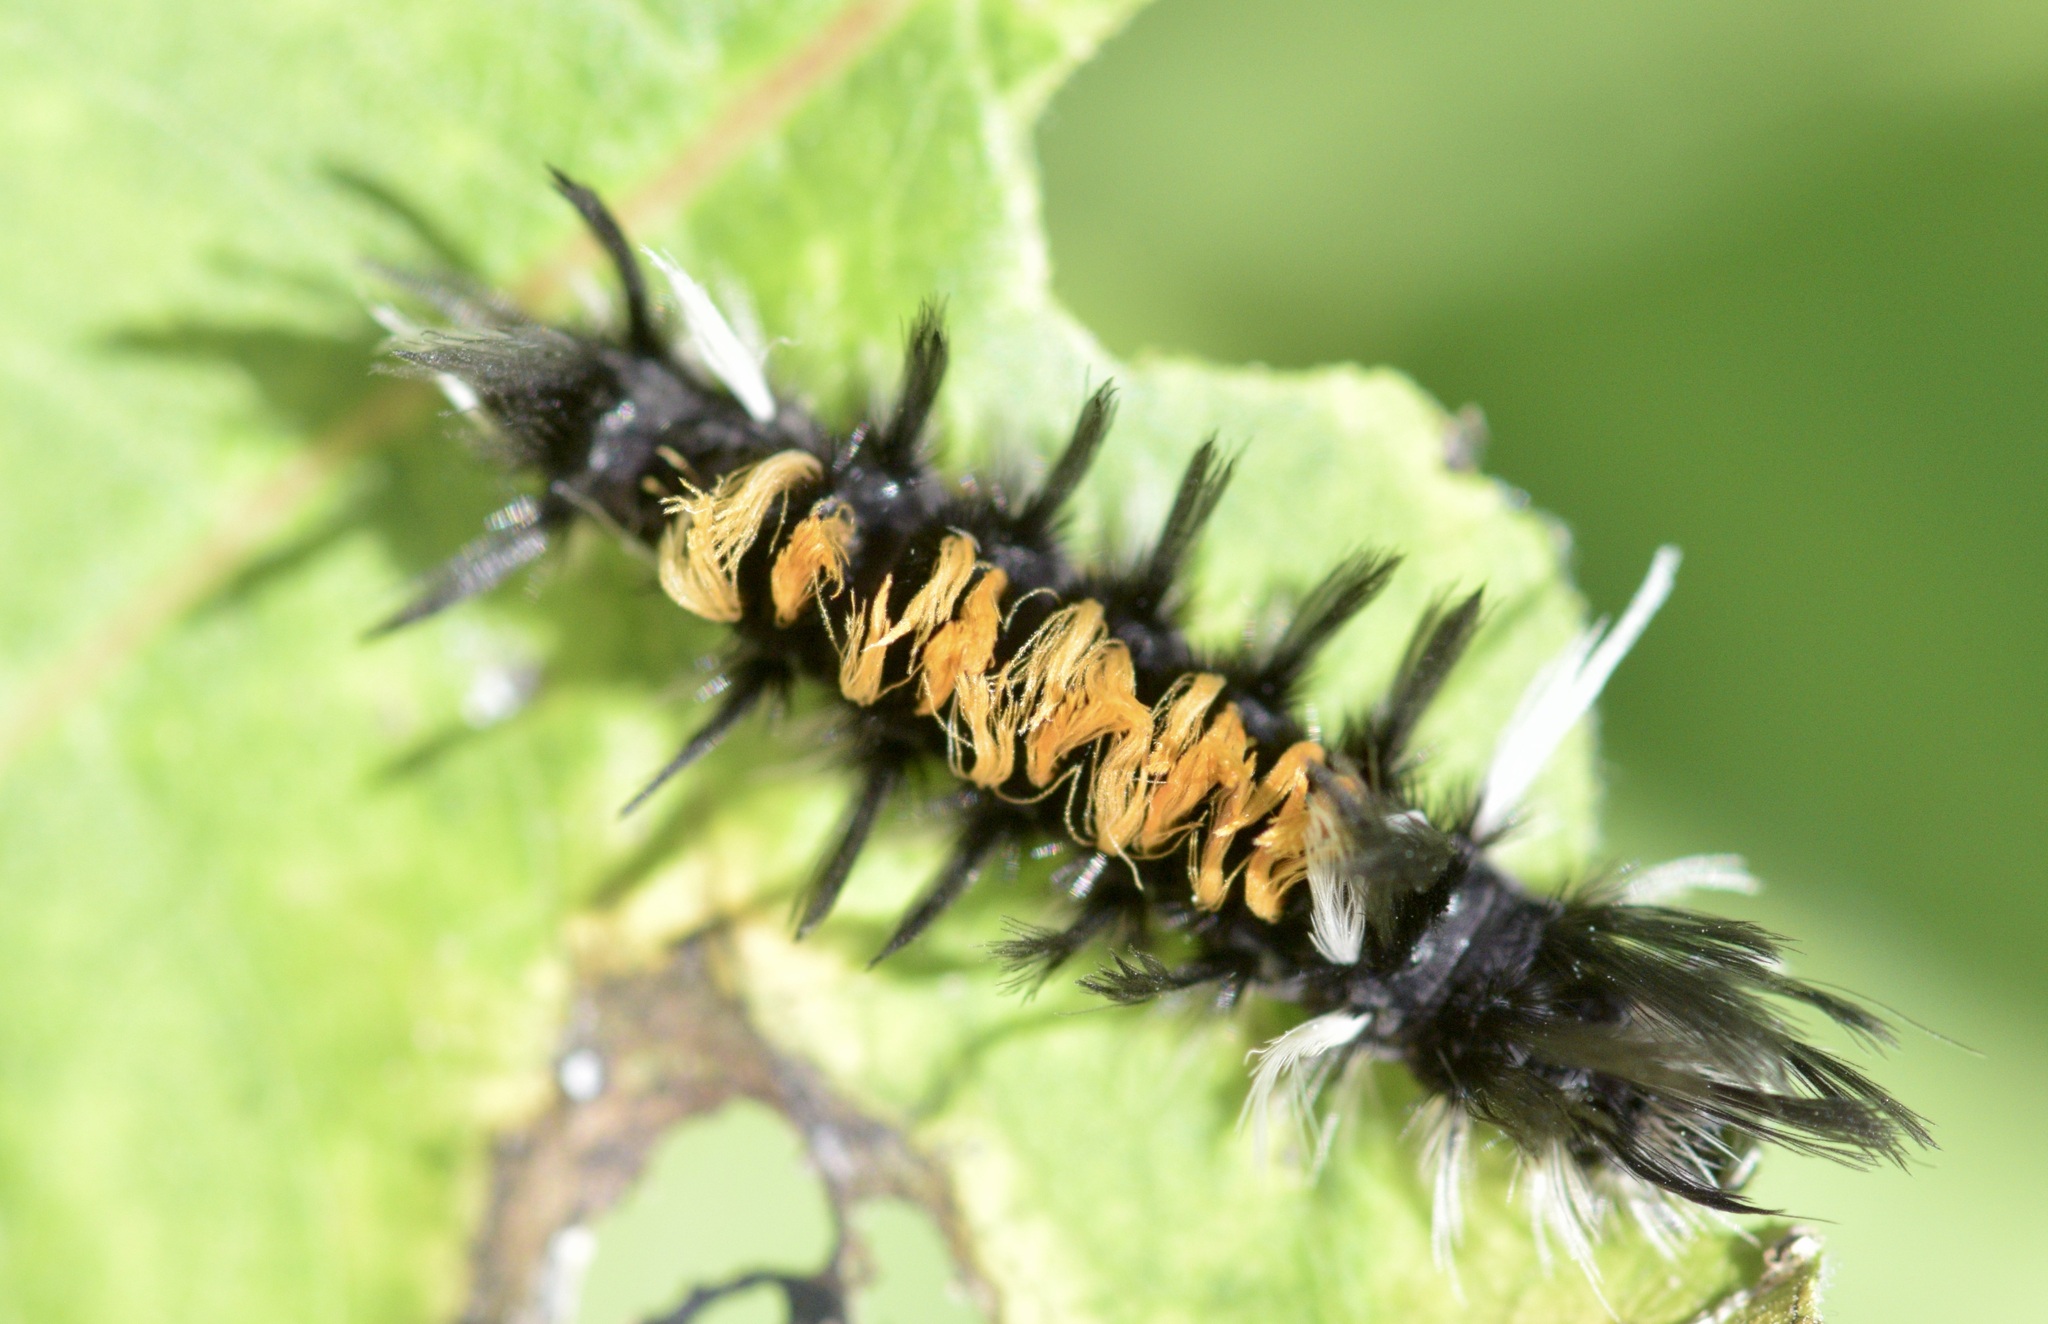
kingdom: Animalia
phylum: Arthropoda
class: Insecta
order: Lepidoptera
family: Erebidae
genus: Euchaetes
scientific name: Euchaetes egle
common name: Milkweed tussock moth
